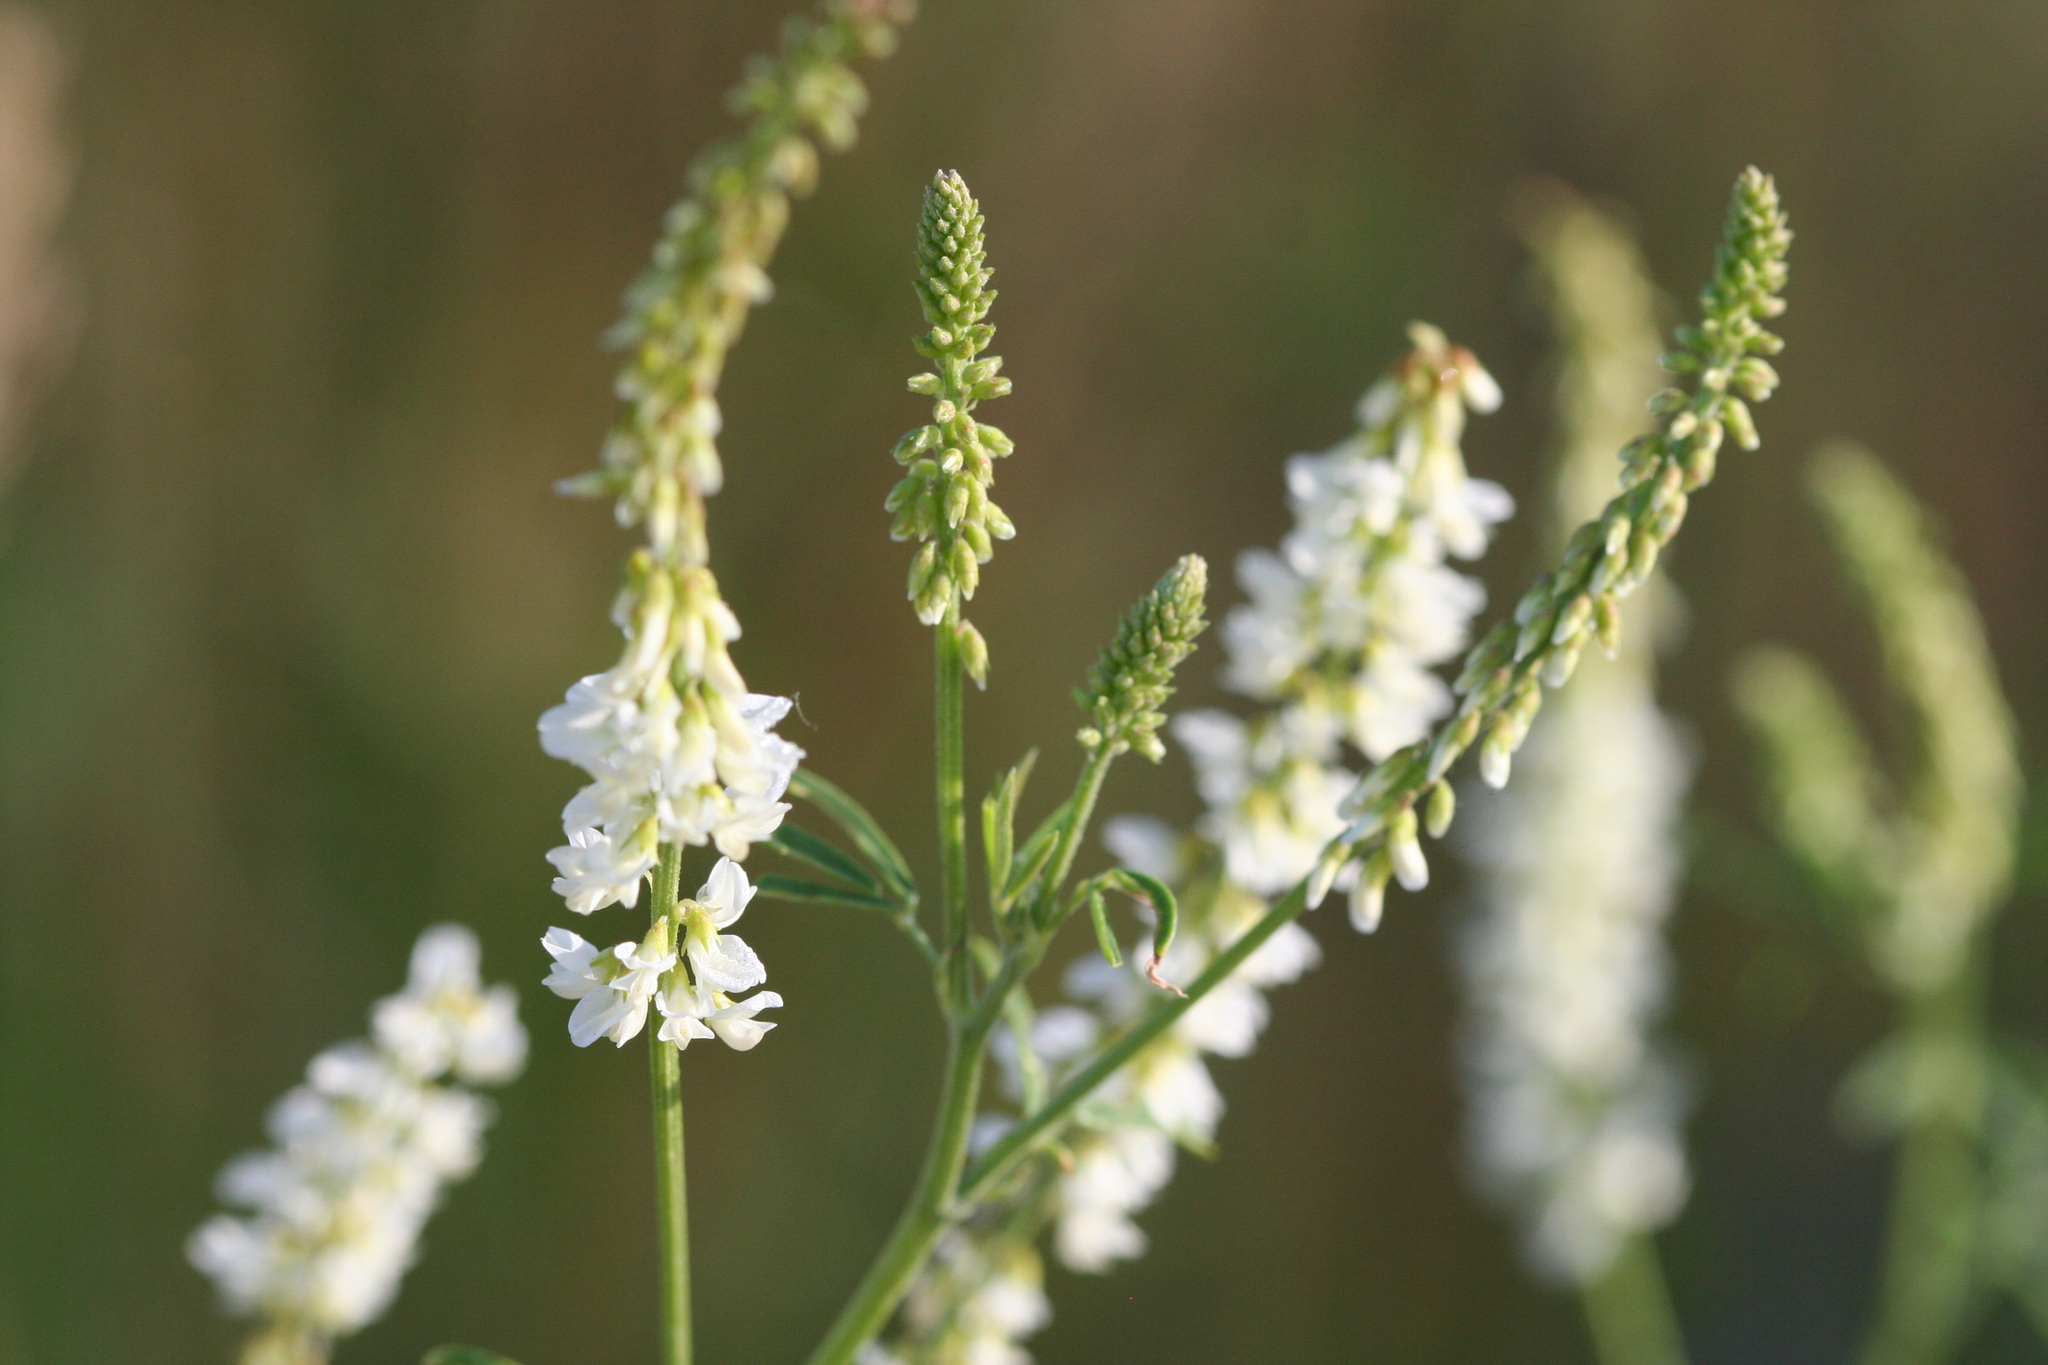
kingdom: Plantae
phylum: Tracheophyta
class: Magnoliopsida
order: Fabales
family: Fabaceae
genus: Melilotus
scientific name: Melilotus albus
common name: White melilot
